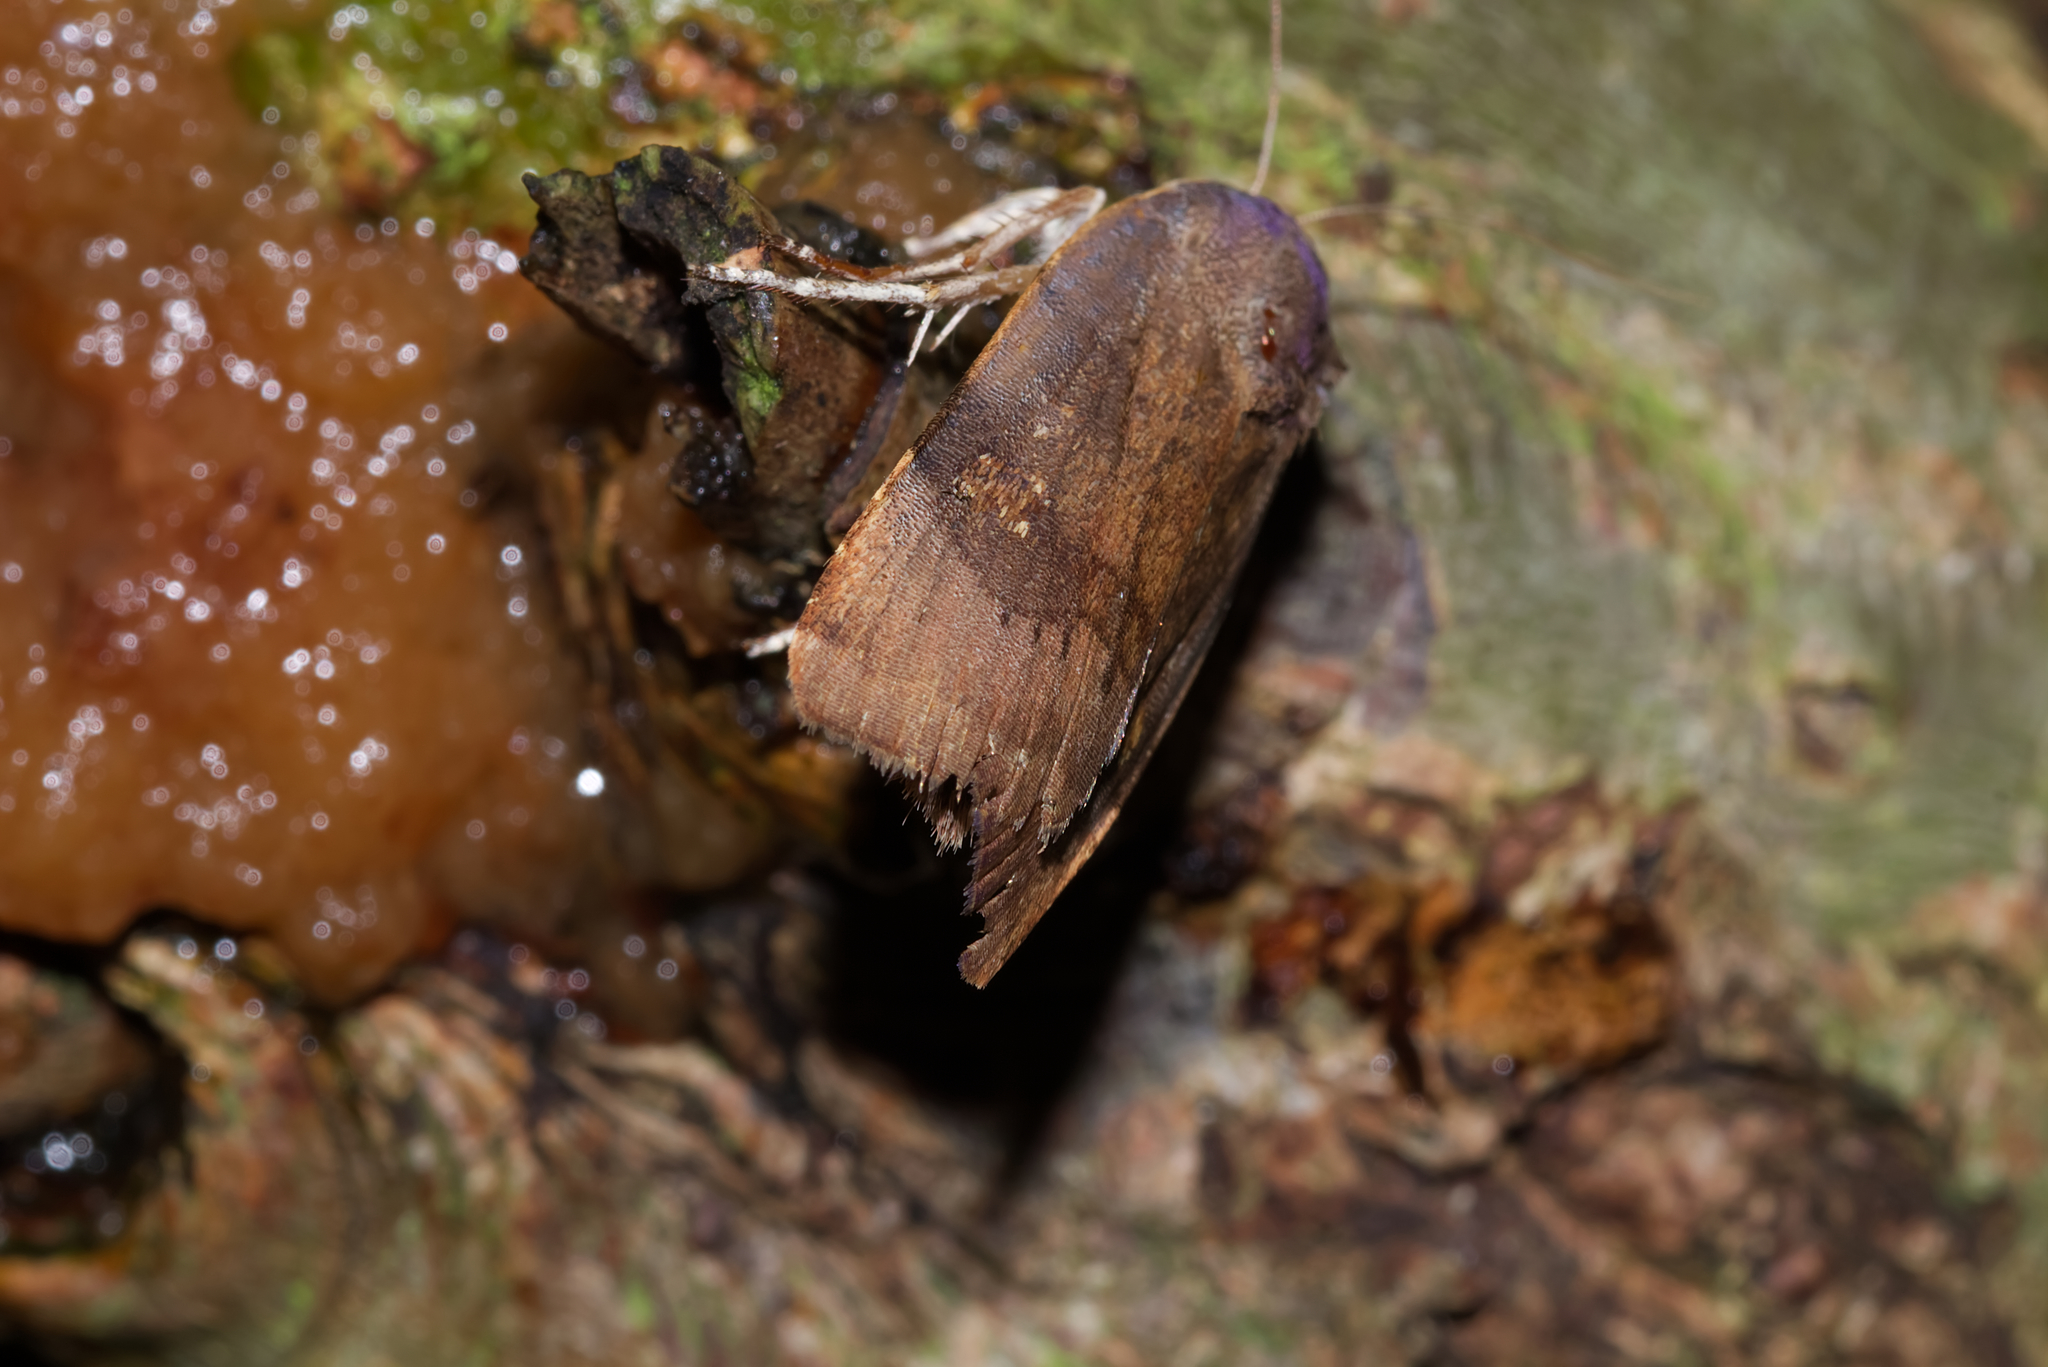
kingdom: Animalia
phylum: Arthropoda
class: Insecta
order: Lepidoptera
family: Noctuidae
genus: Noctua
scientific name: Noctua
